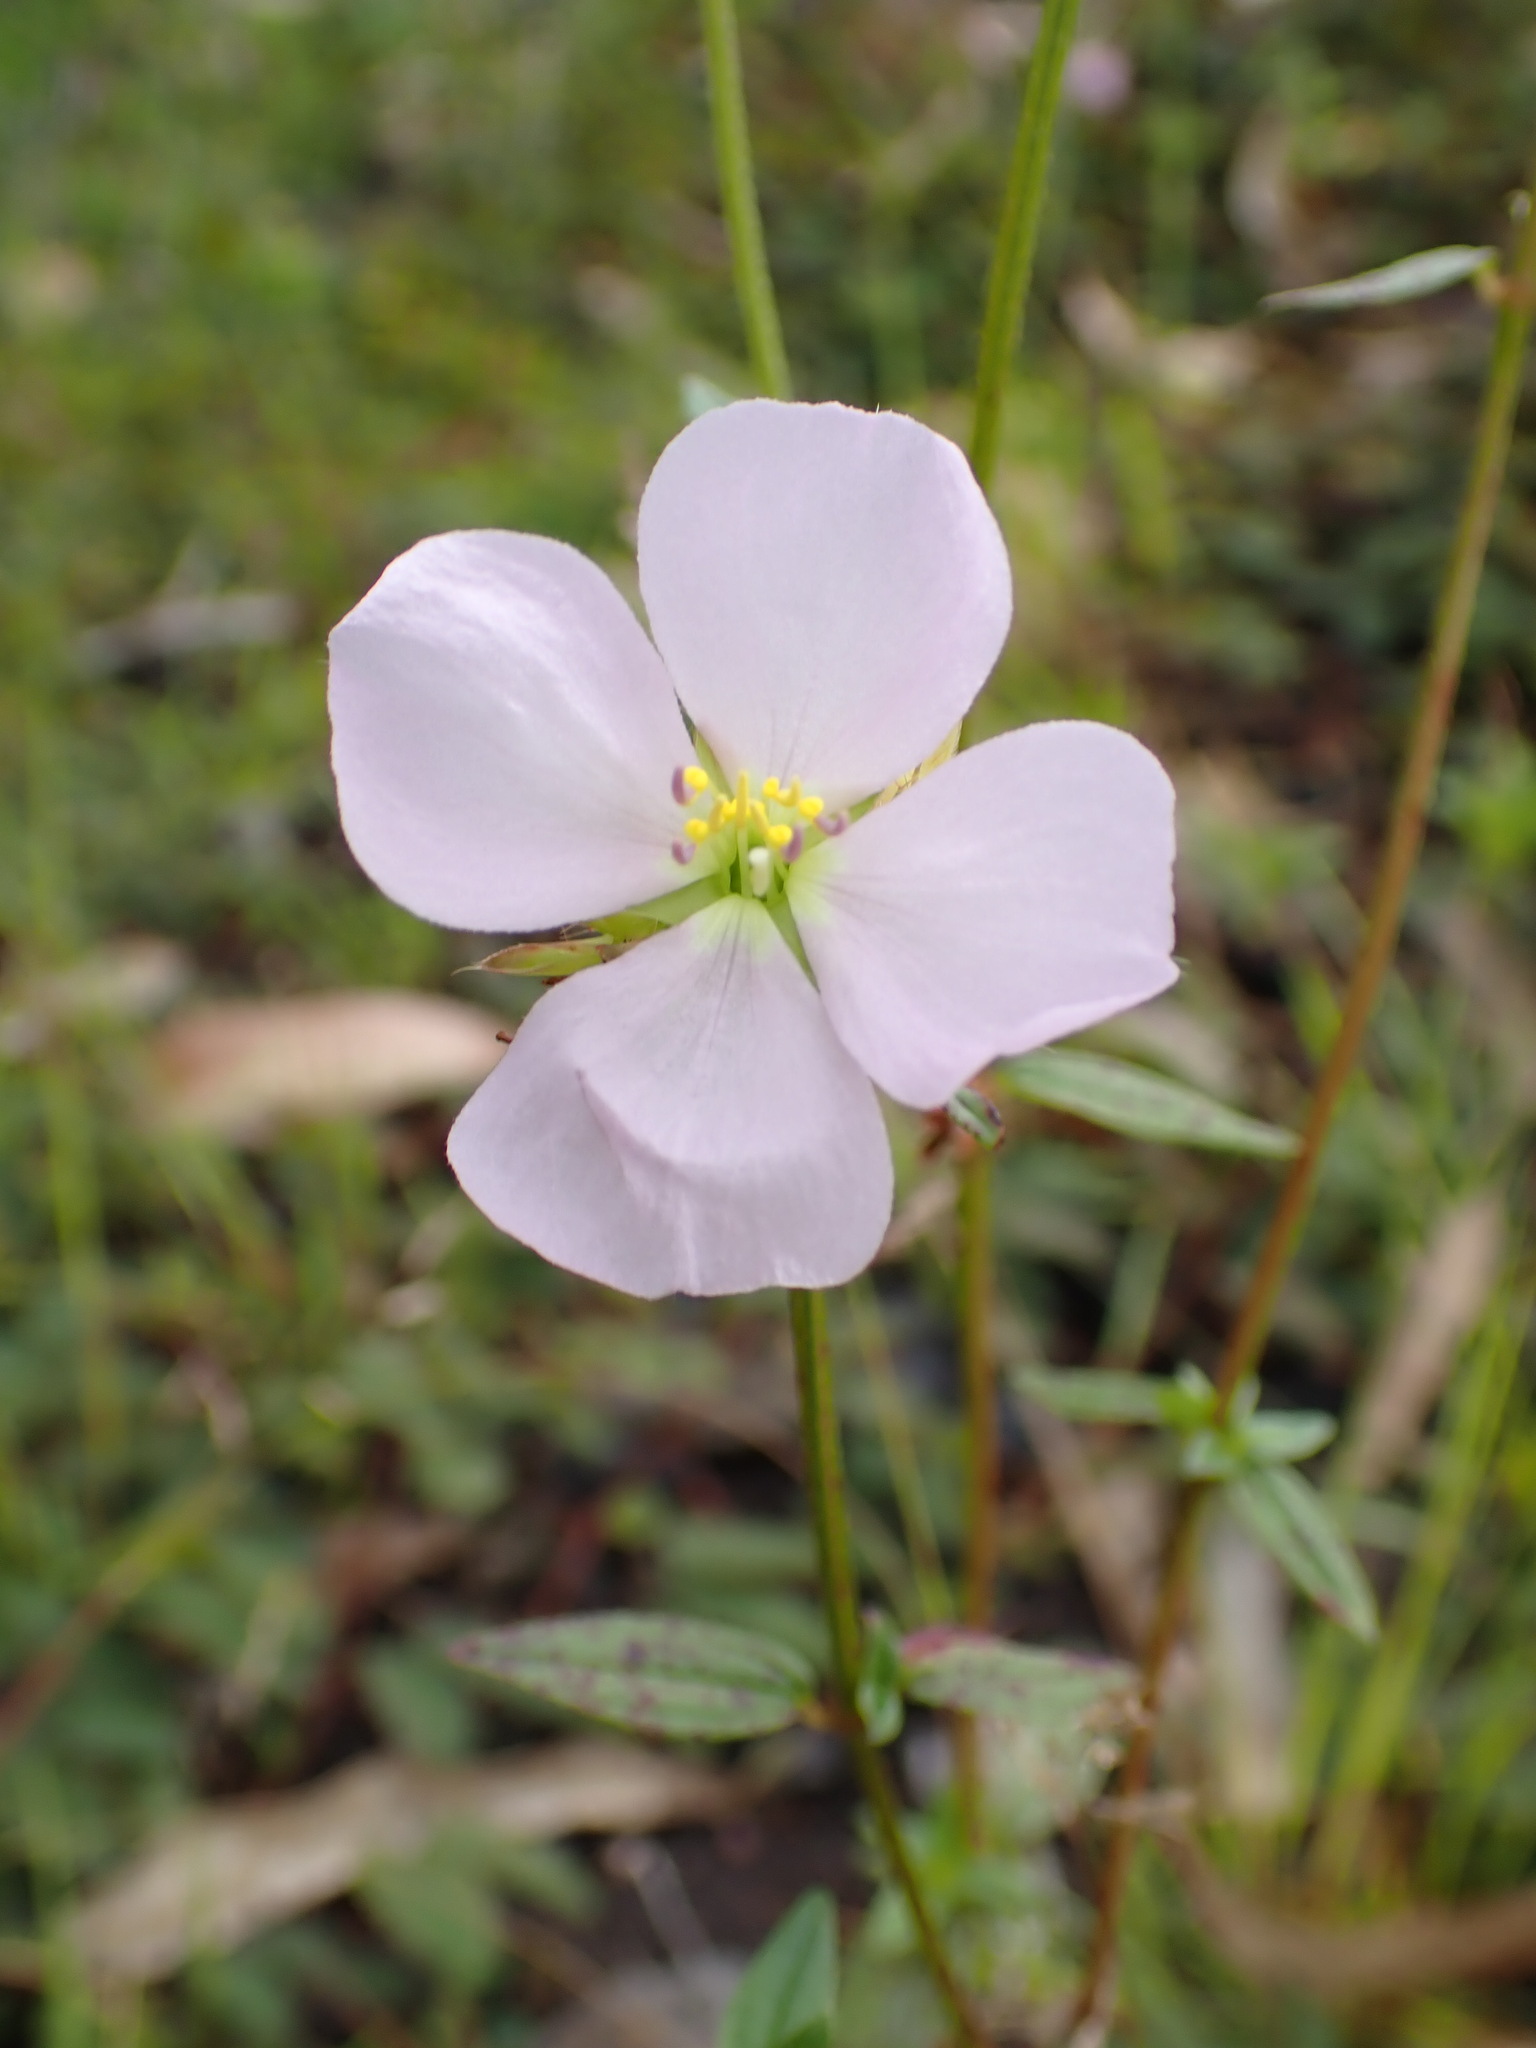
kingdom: Plantae
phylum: Tracheophyta
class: Magnoliopsida
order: Myrtales
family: Melastomataceae
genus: Pterolepis
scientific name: Pterolepis glomerata
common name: False meadowbeauty
